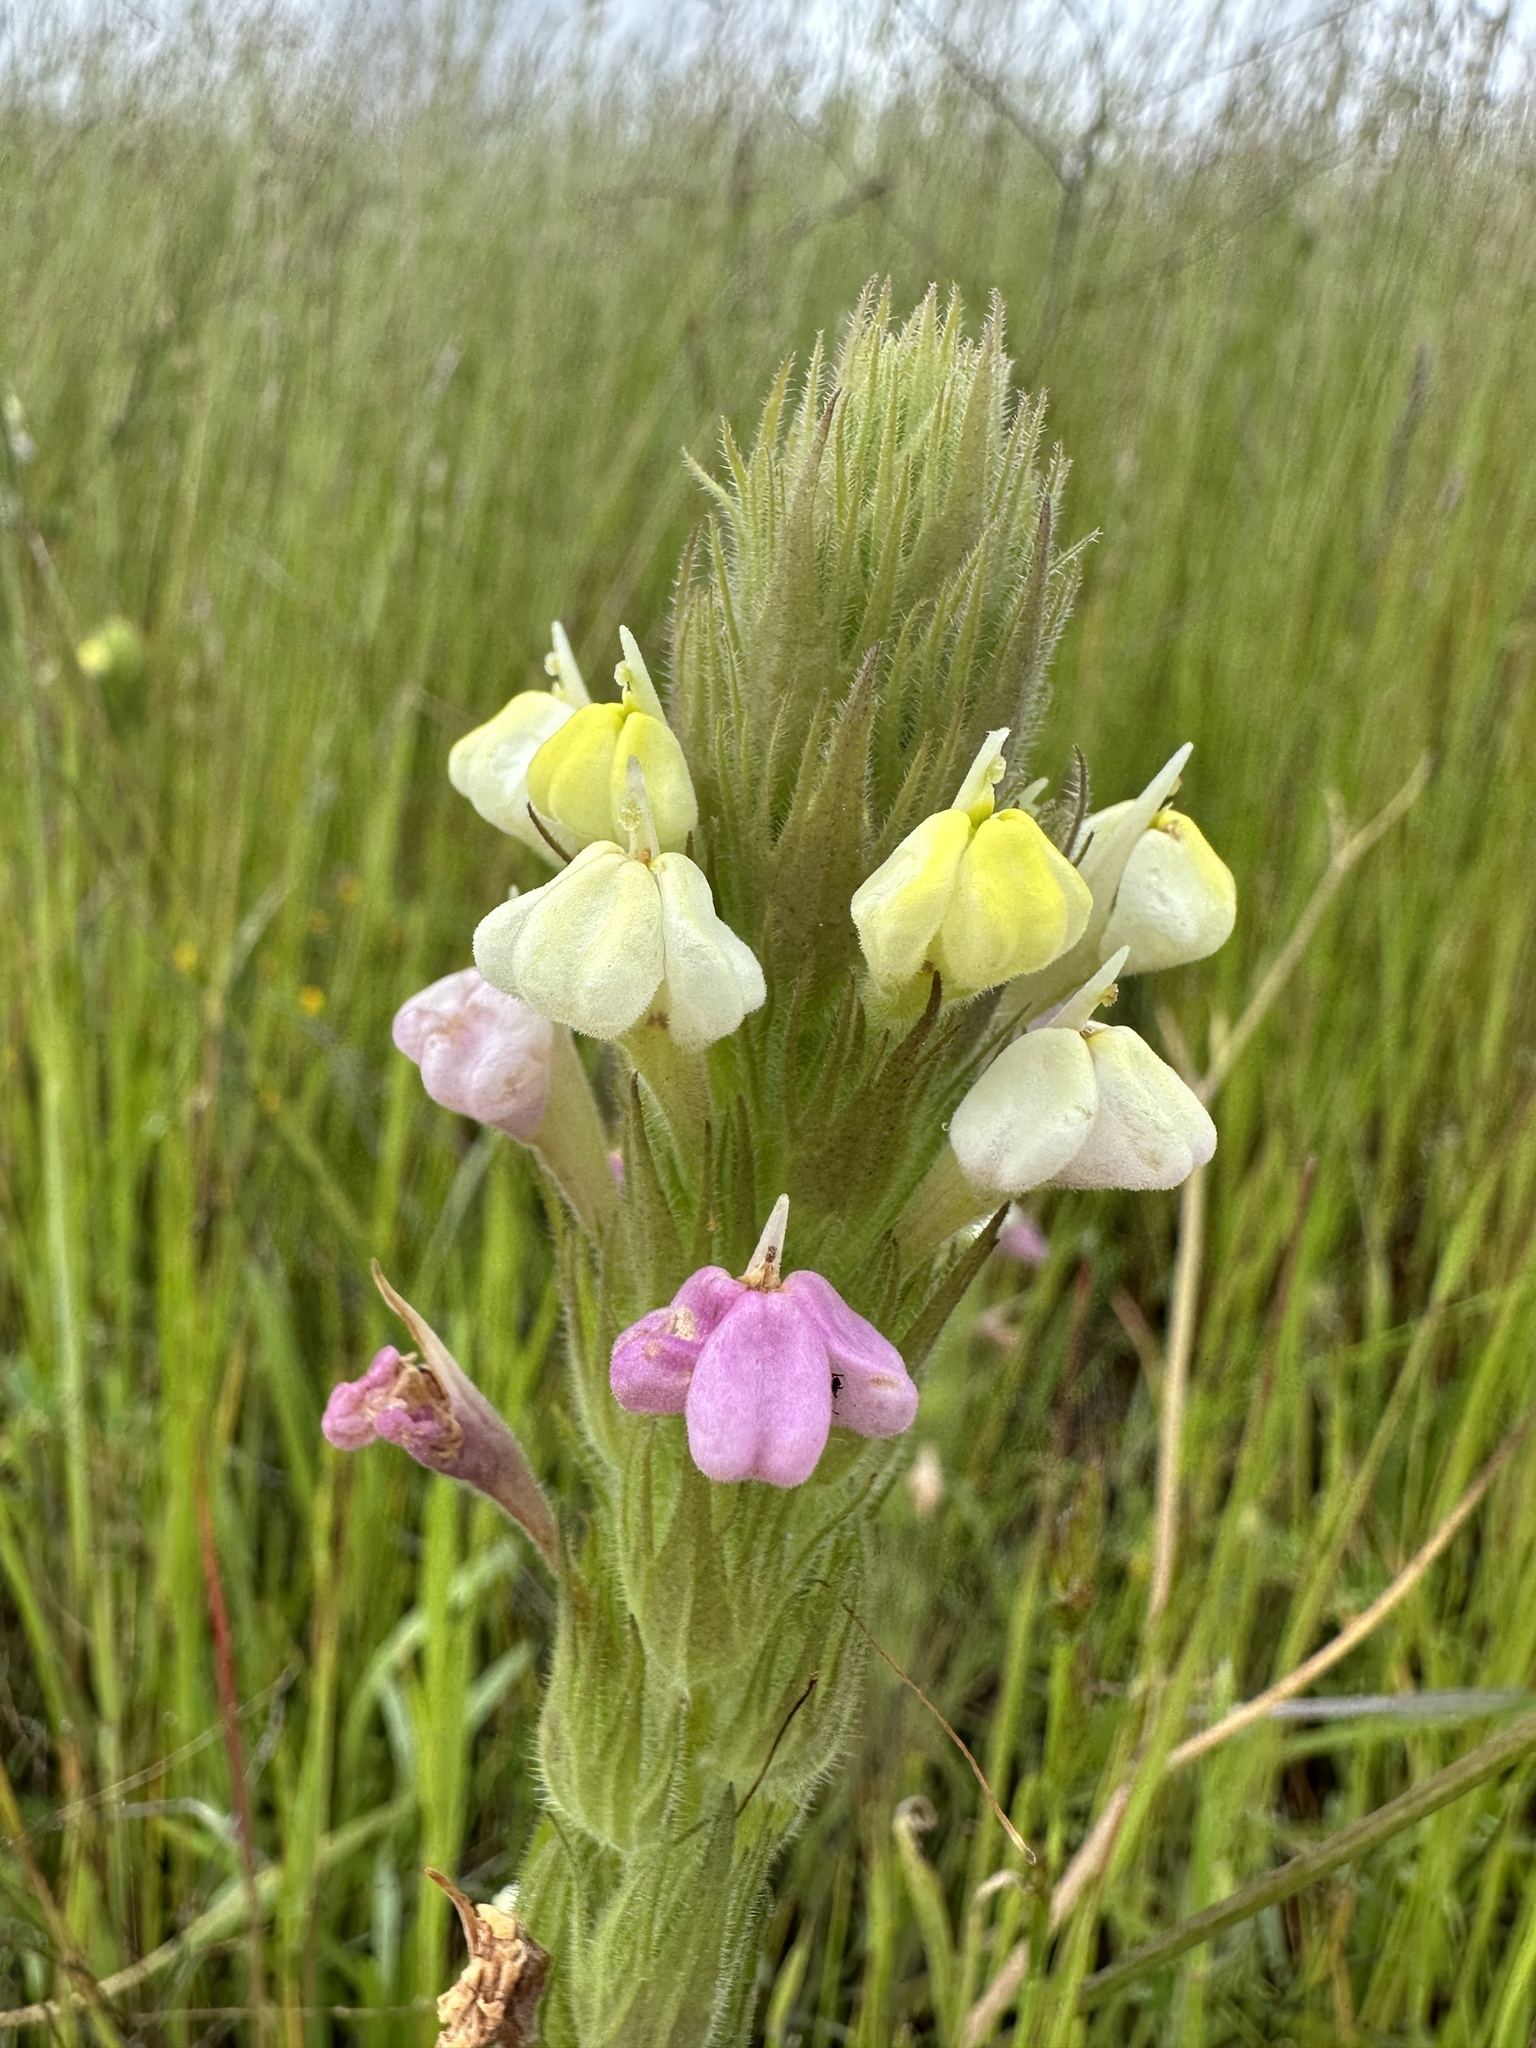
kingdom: Plantae
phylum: Tracheophyta
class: Magnoliopsida
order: Lamiales
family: Orobanchaceae
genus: Castilleja
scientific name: Castilleja rubicundula
